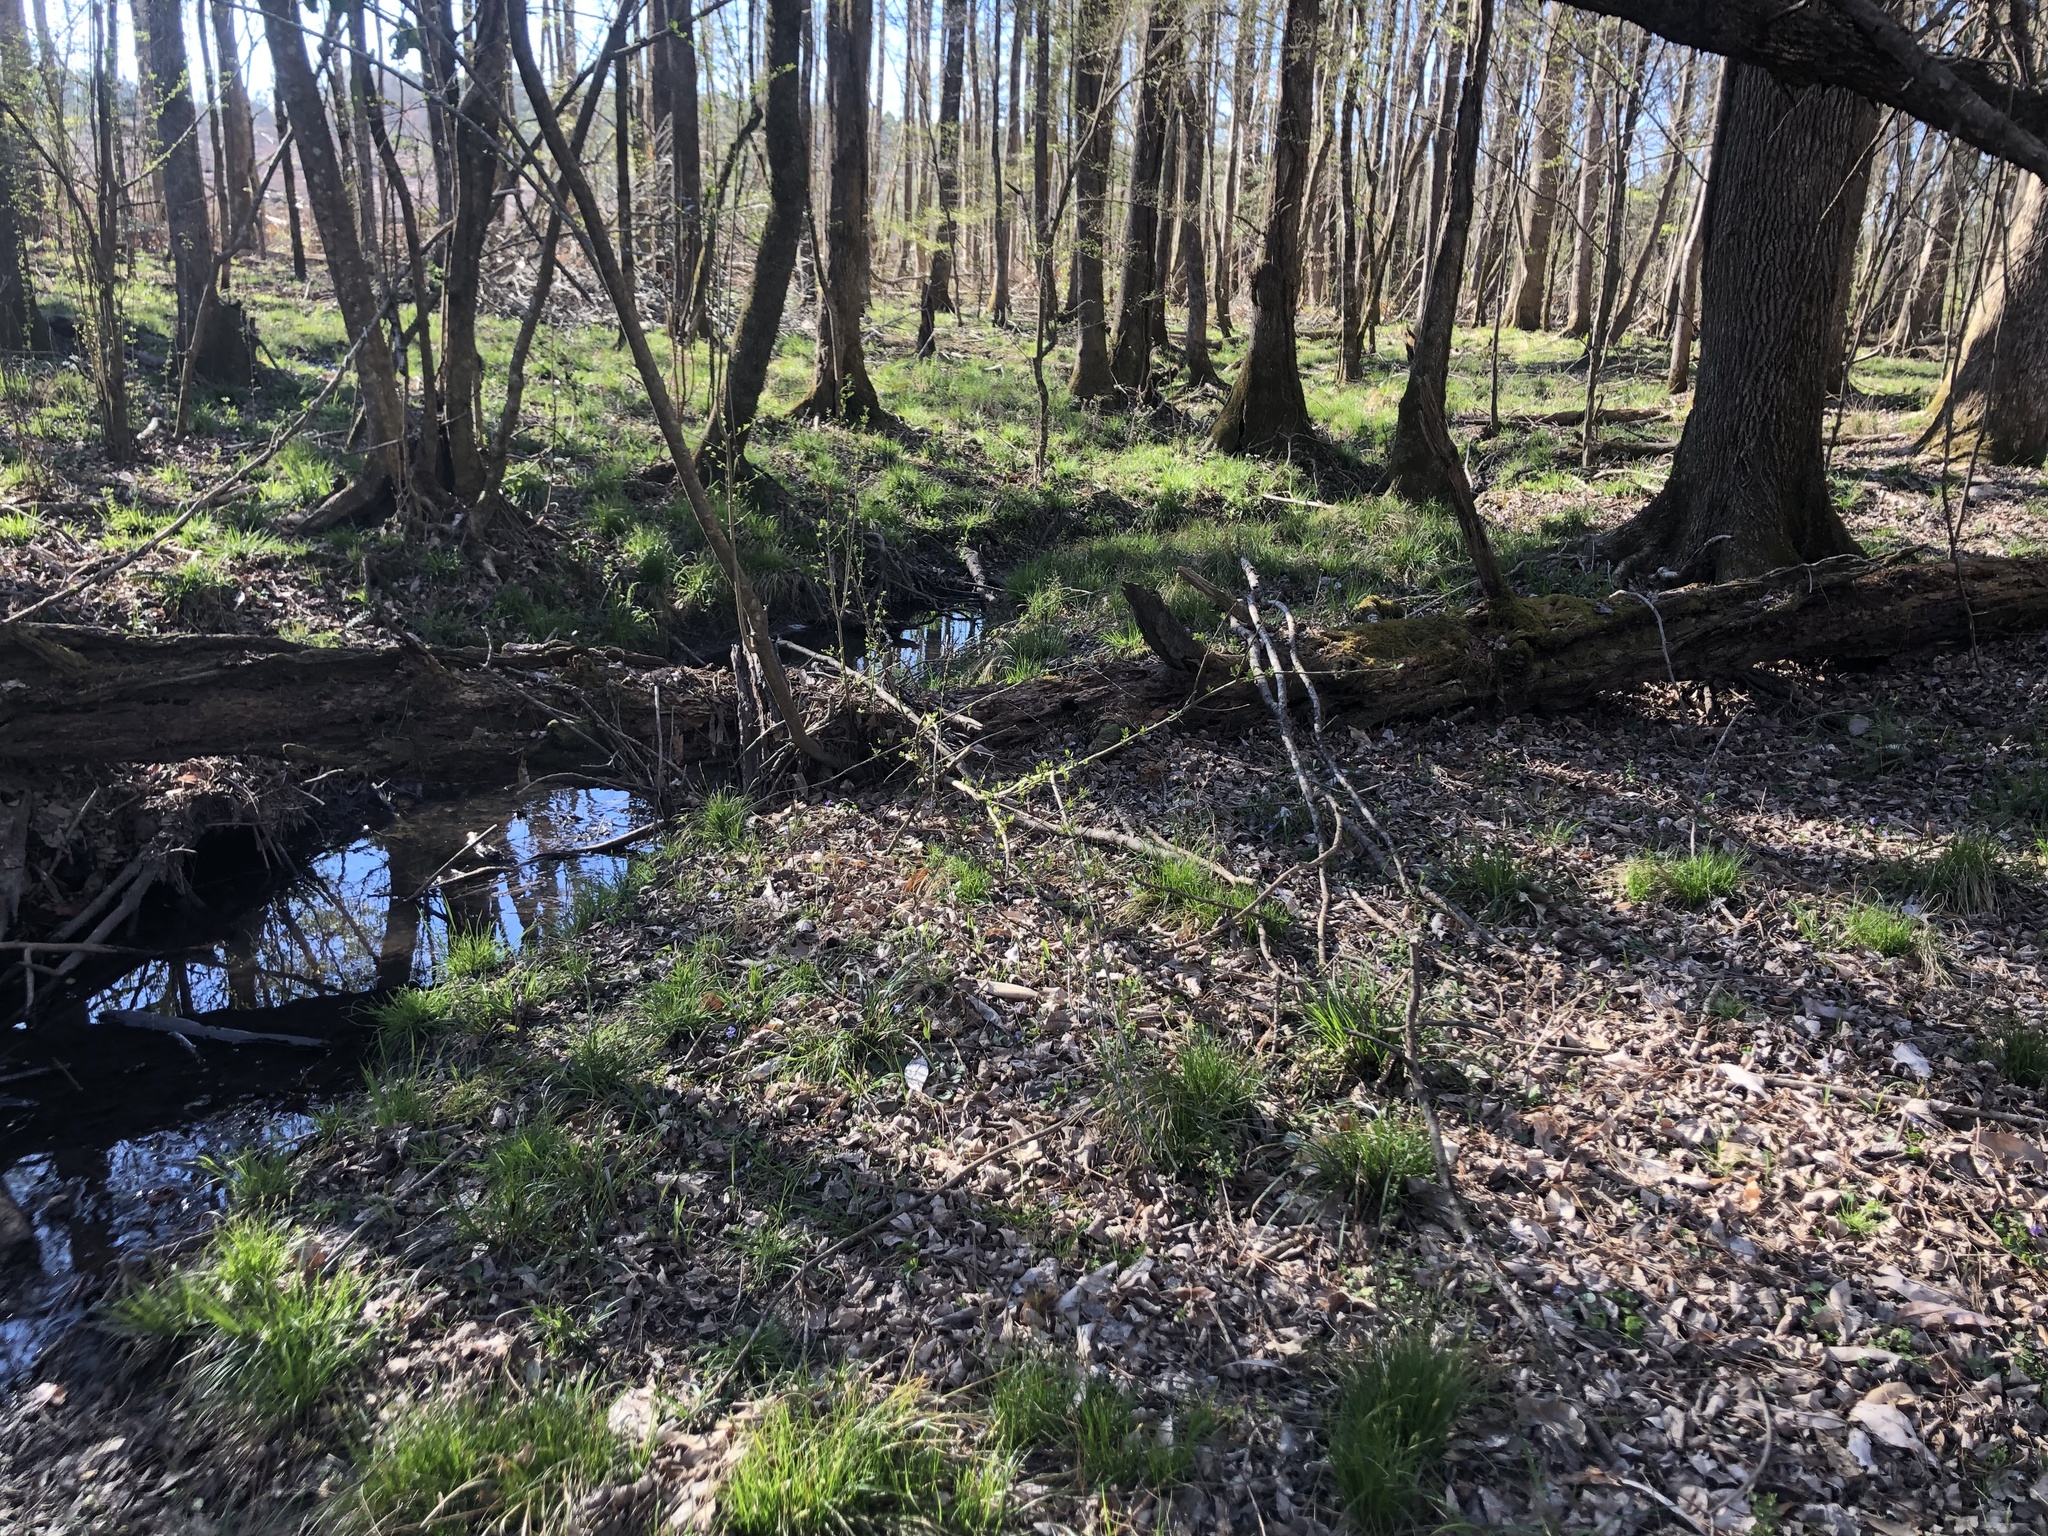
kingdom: Plantae
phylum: Tracheophyta
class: Liliopsida
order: Poales
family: Cyperaceae
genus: Carex
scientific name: Carex bromoides
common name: Brome hummock sedge
